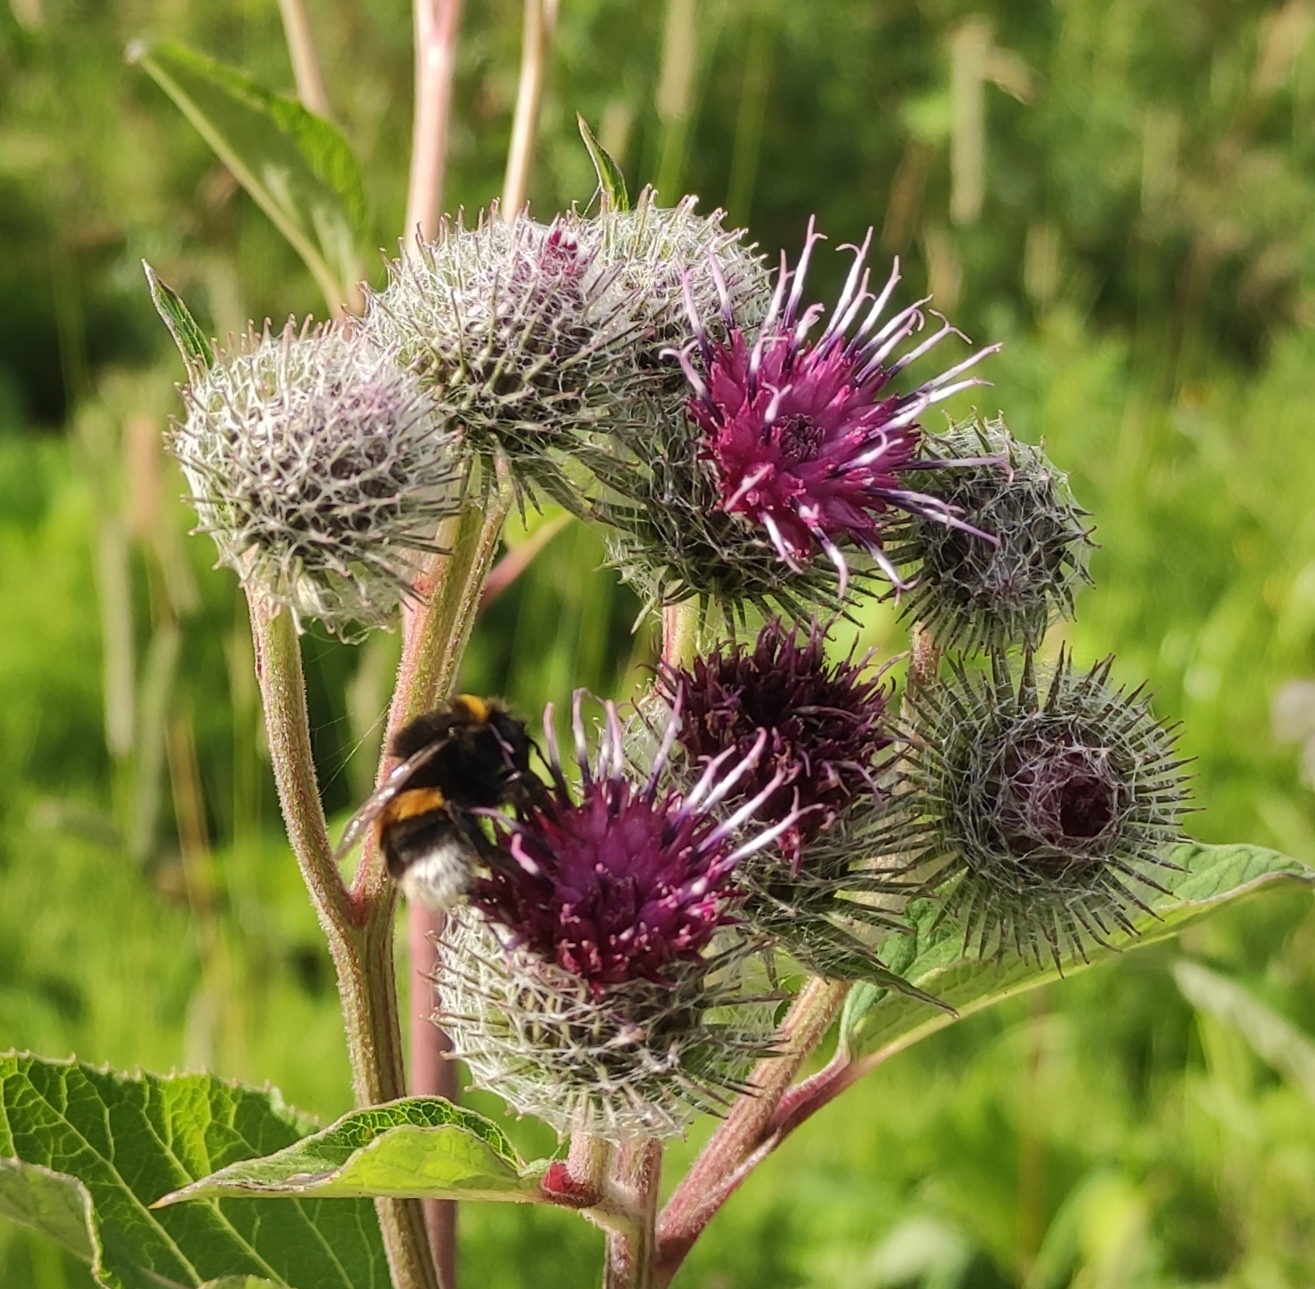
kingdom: Animalia
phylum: Arthropoda
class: Insecta
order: Hymenoptera
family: Apidae
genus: Bombus
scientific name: Bombus
